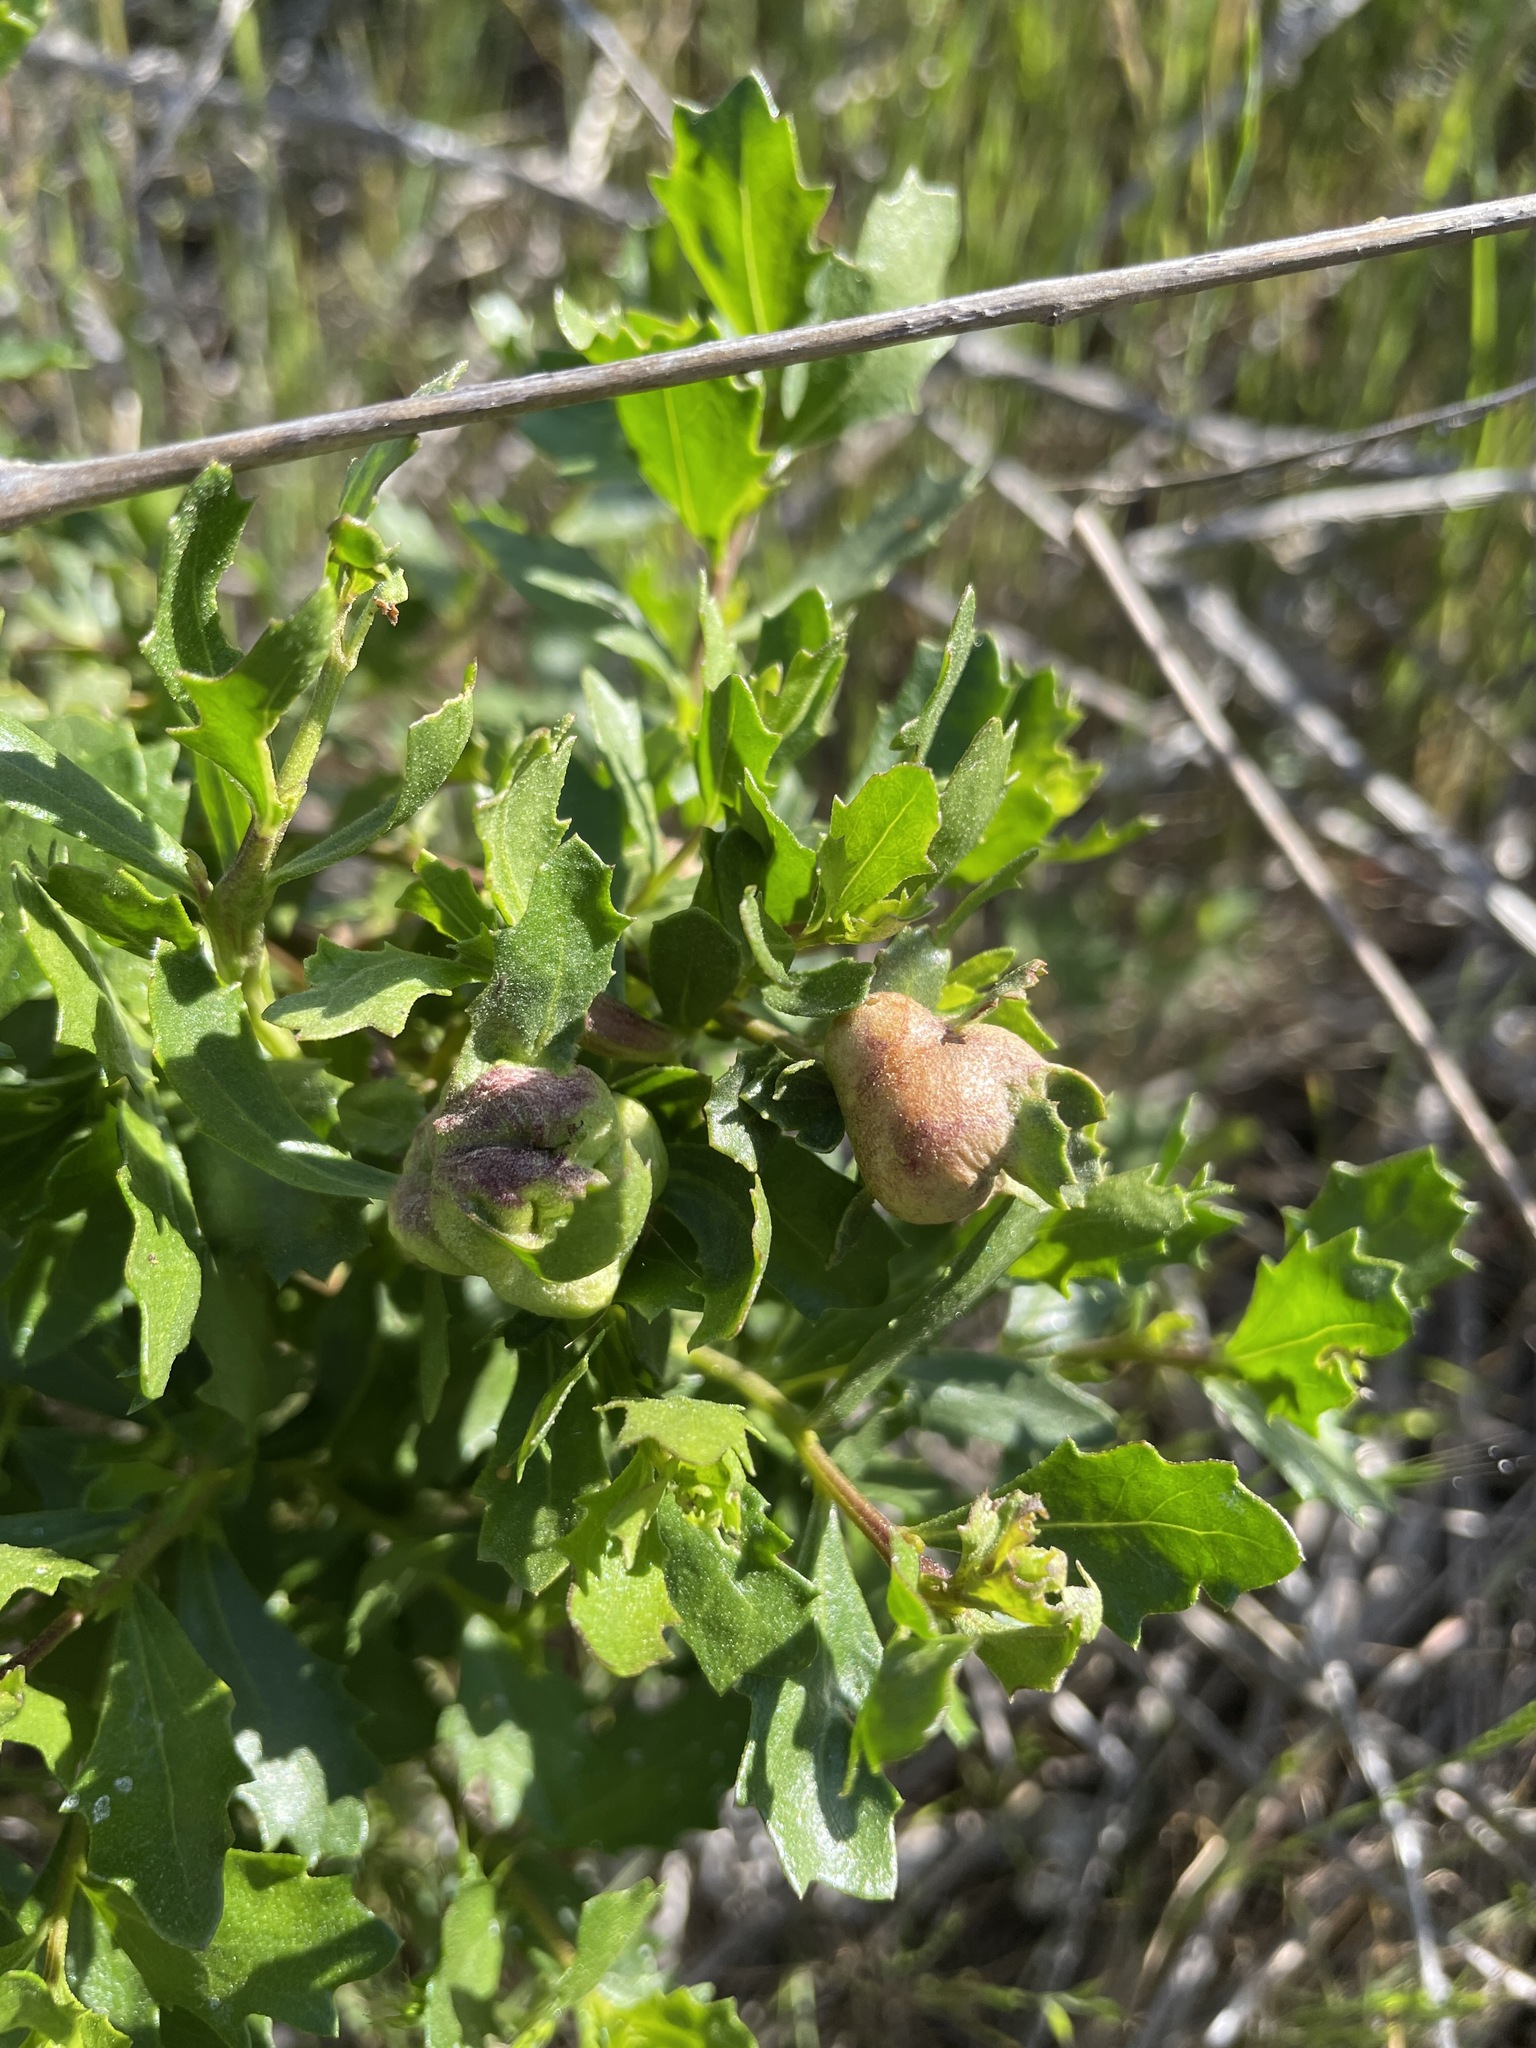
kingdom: Animalia
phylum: Arthropoda
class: Insecta
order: Diptera
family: Cecidomyiidae
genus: Rhopalomyia
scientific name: Rhopalomyia californica
